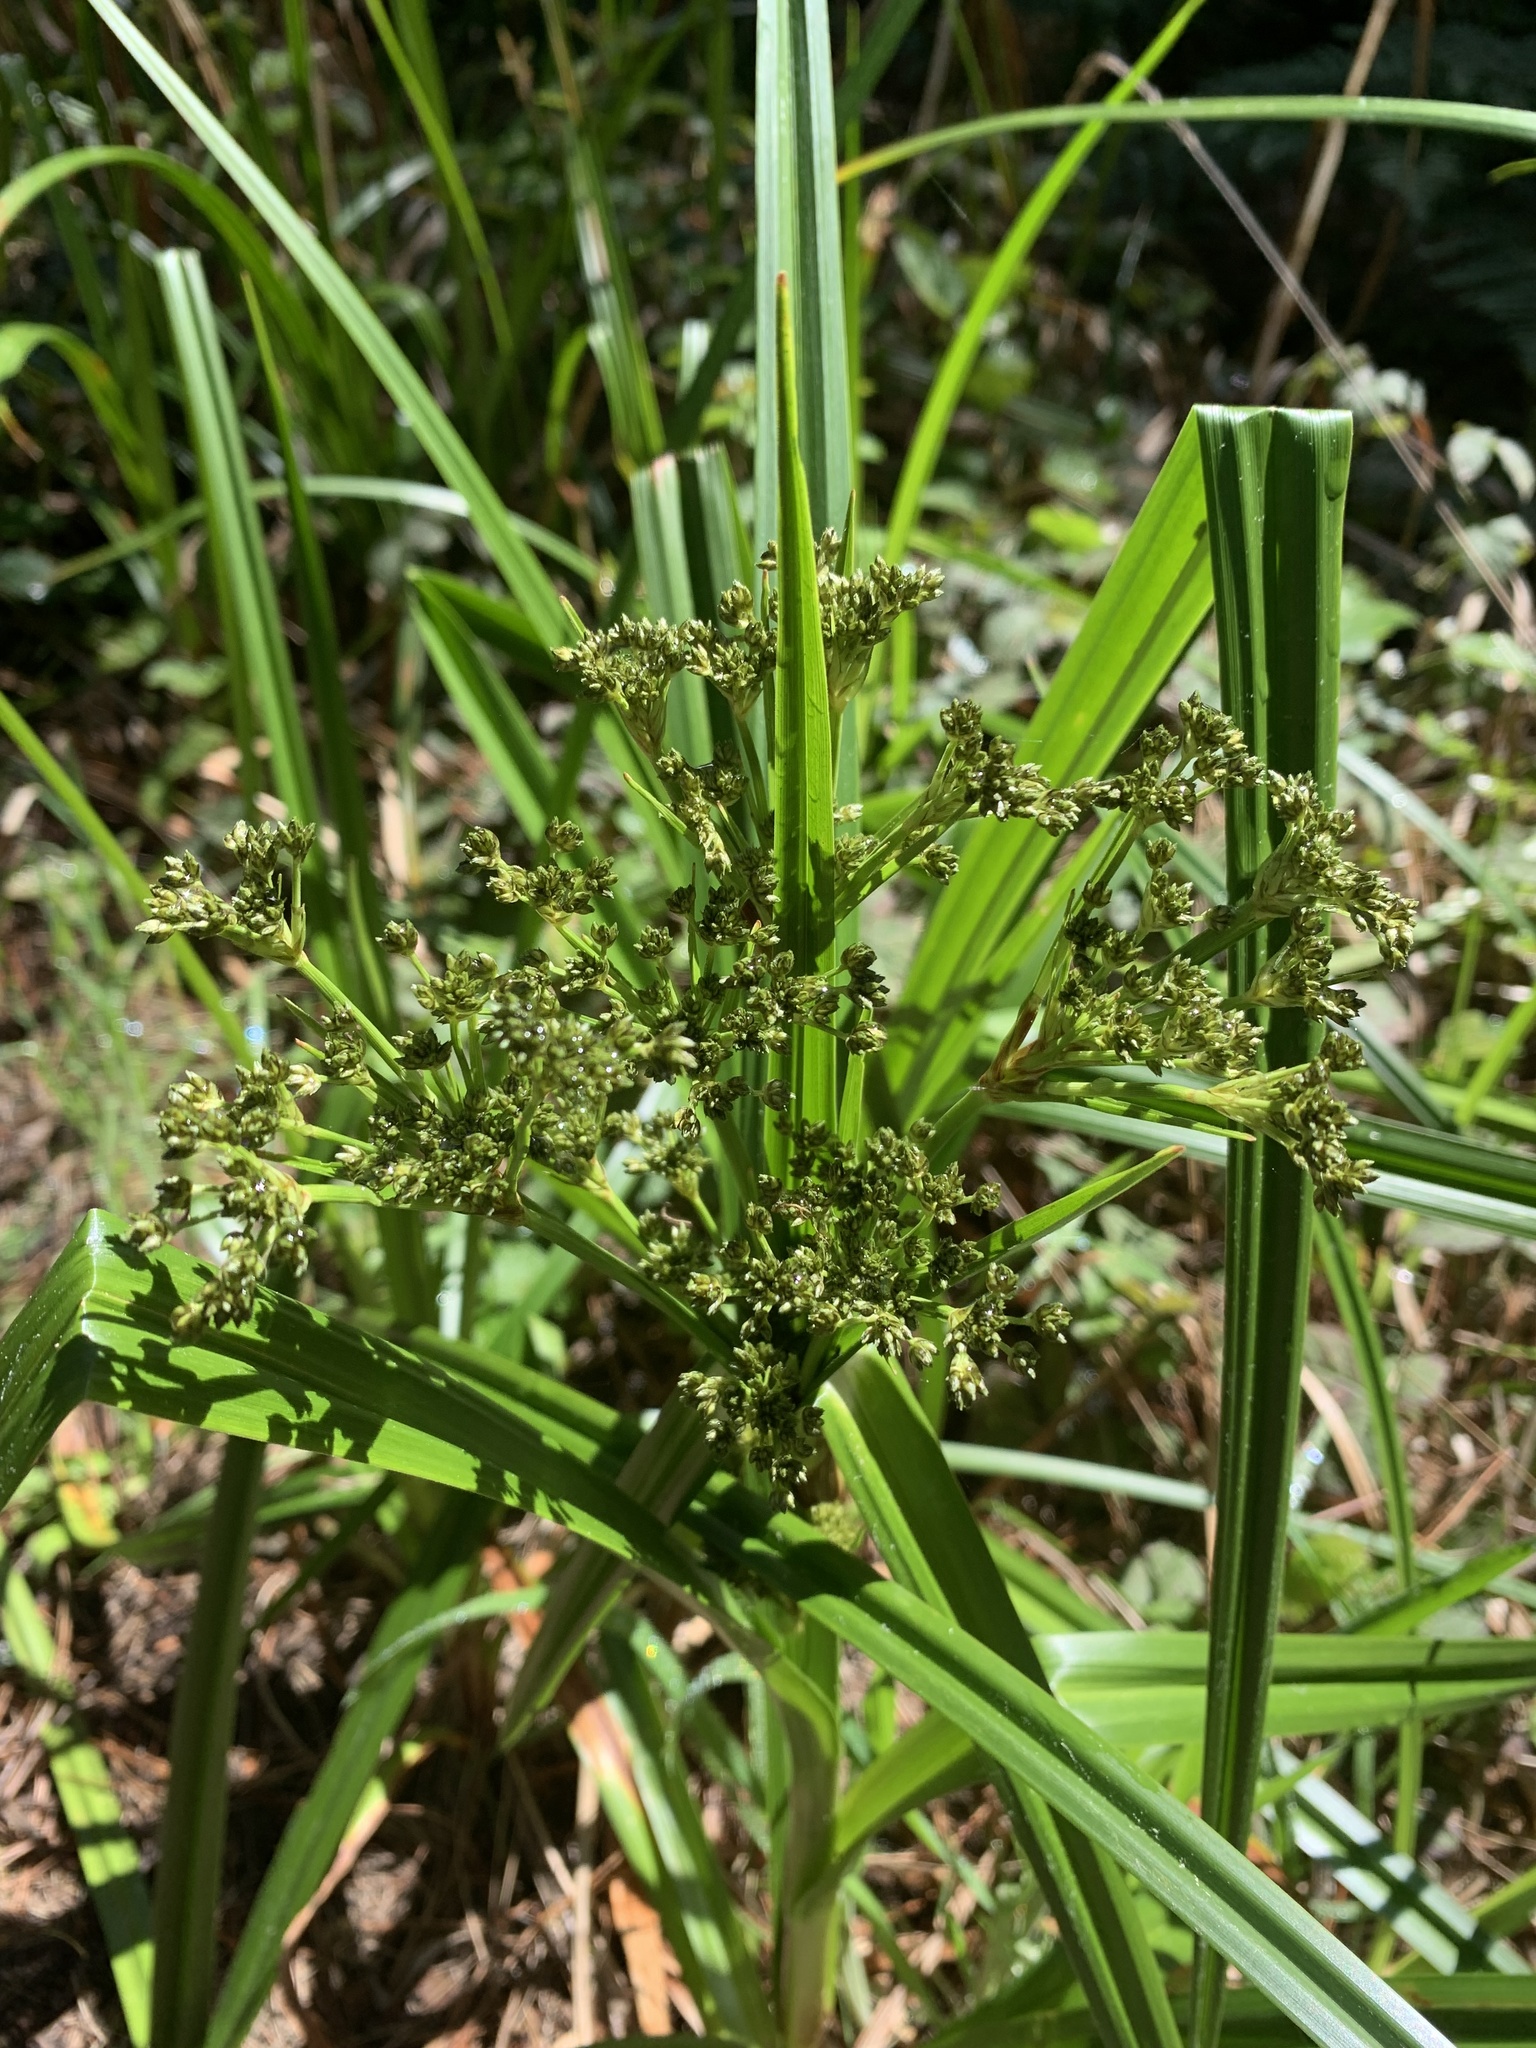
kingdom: Plantae
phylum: Tracheophyta
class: Liliopsida
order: Poales
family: Cyperaceae
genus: Scirpus
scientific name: Scirpus microcarpus
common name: Panicled bulrush
